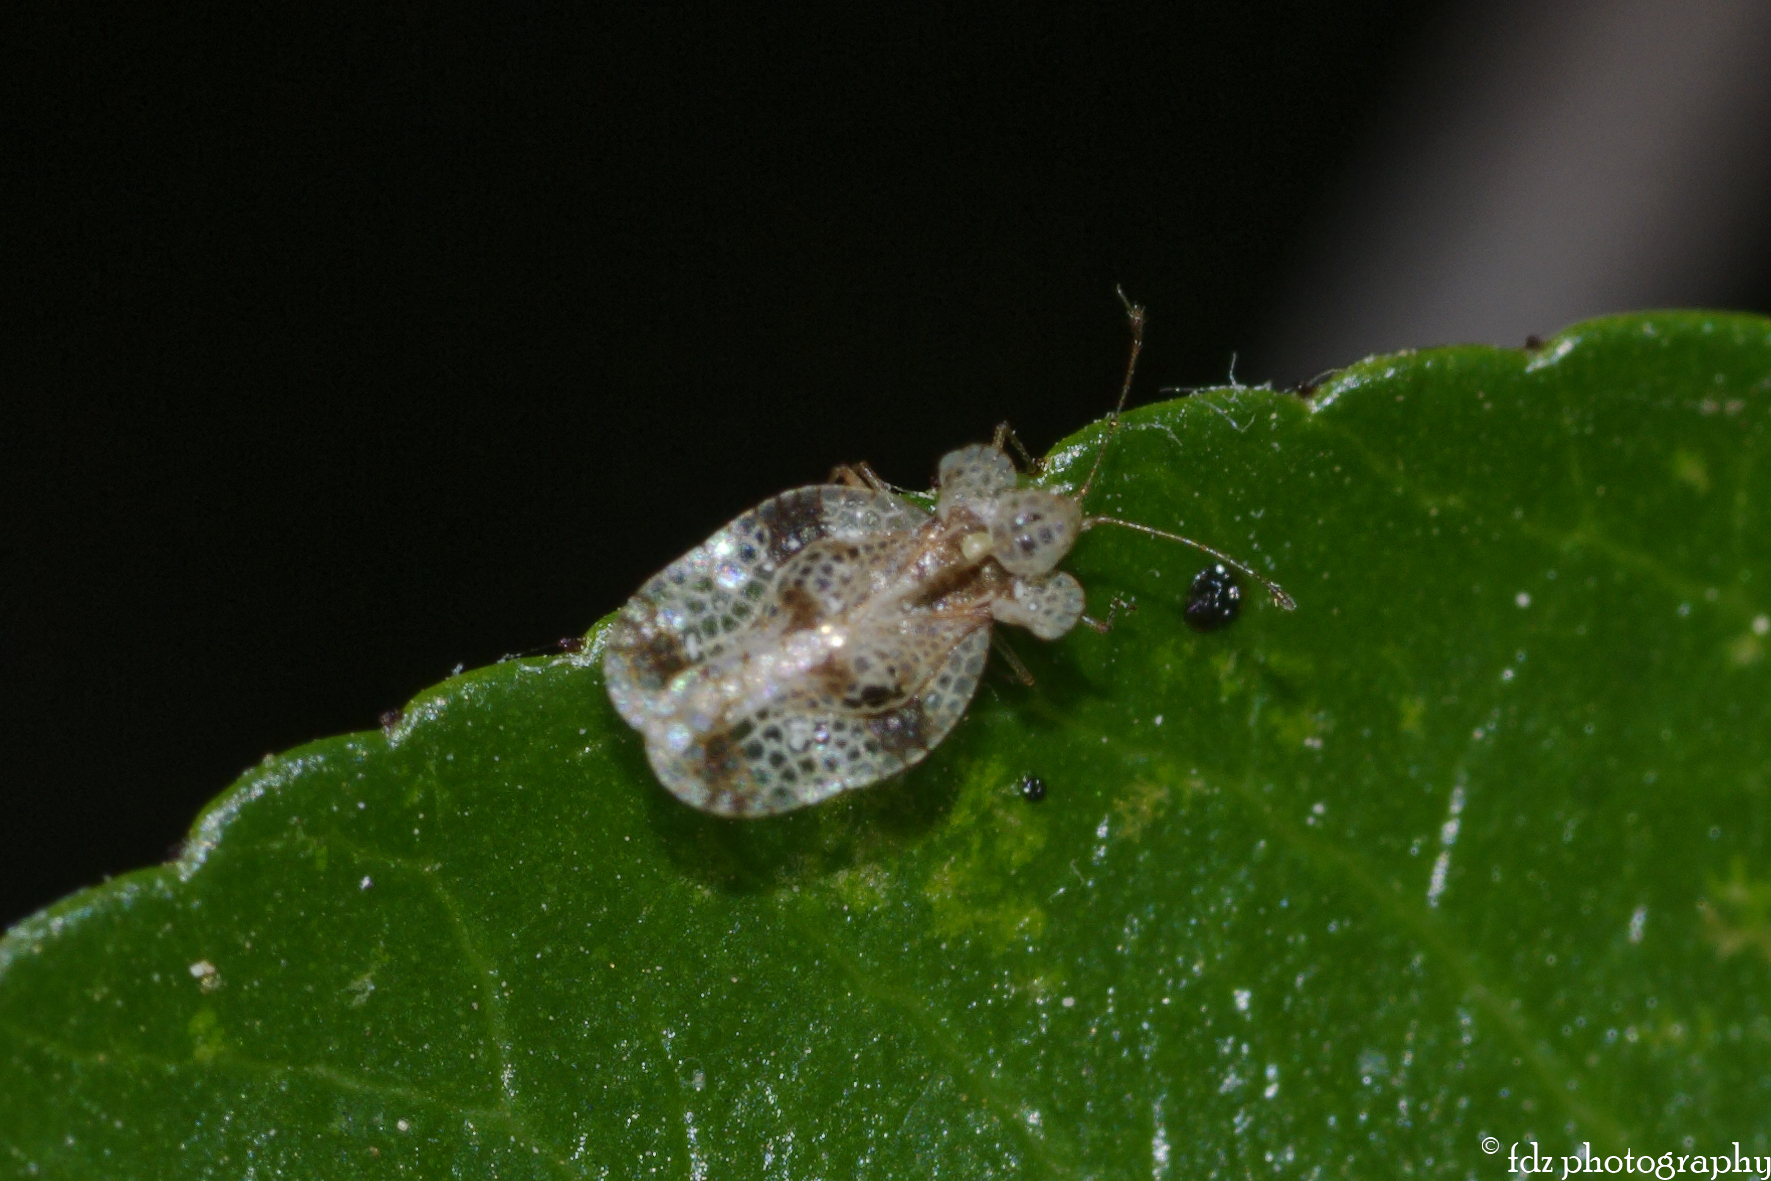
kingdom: Animalia
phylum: Arthropoda
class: Insecta
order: Hemiptera
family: Tingidae
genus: Stephanitis
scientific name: Stephanitis pyri
